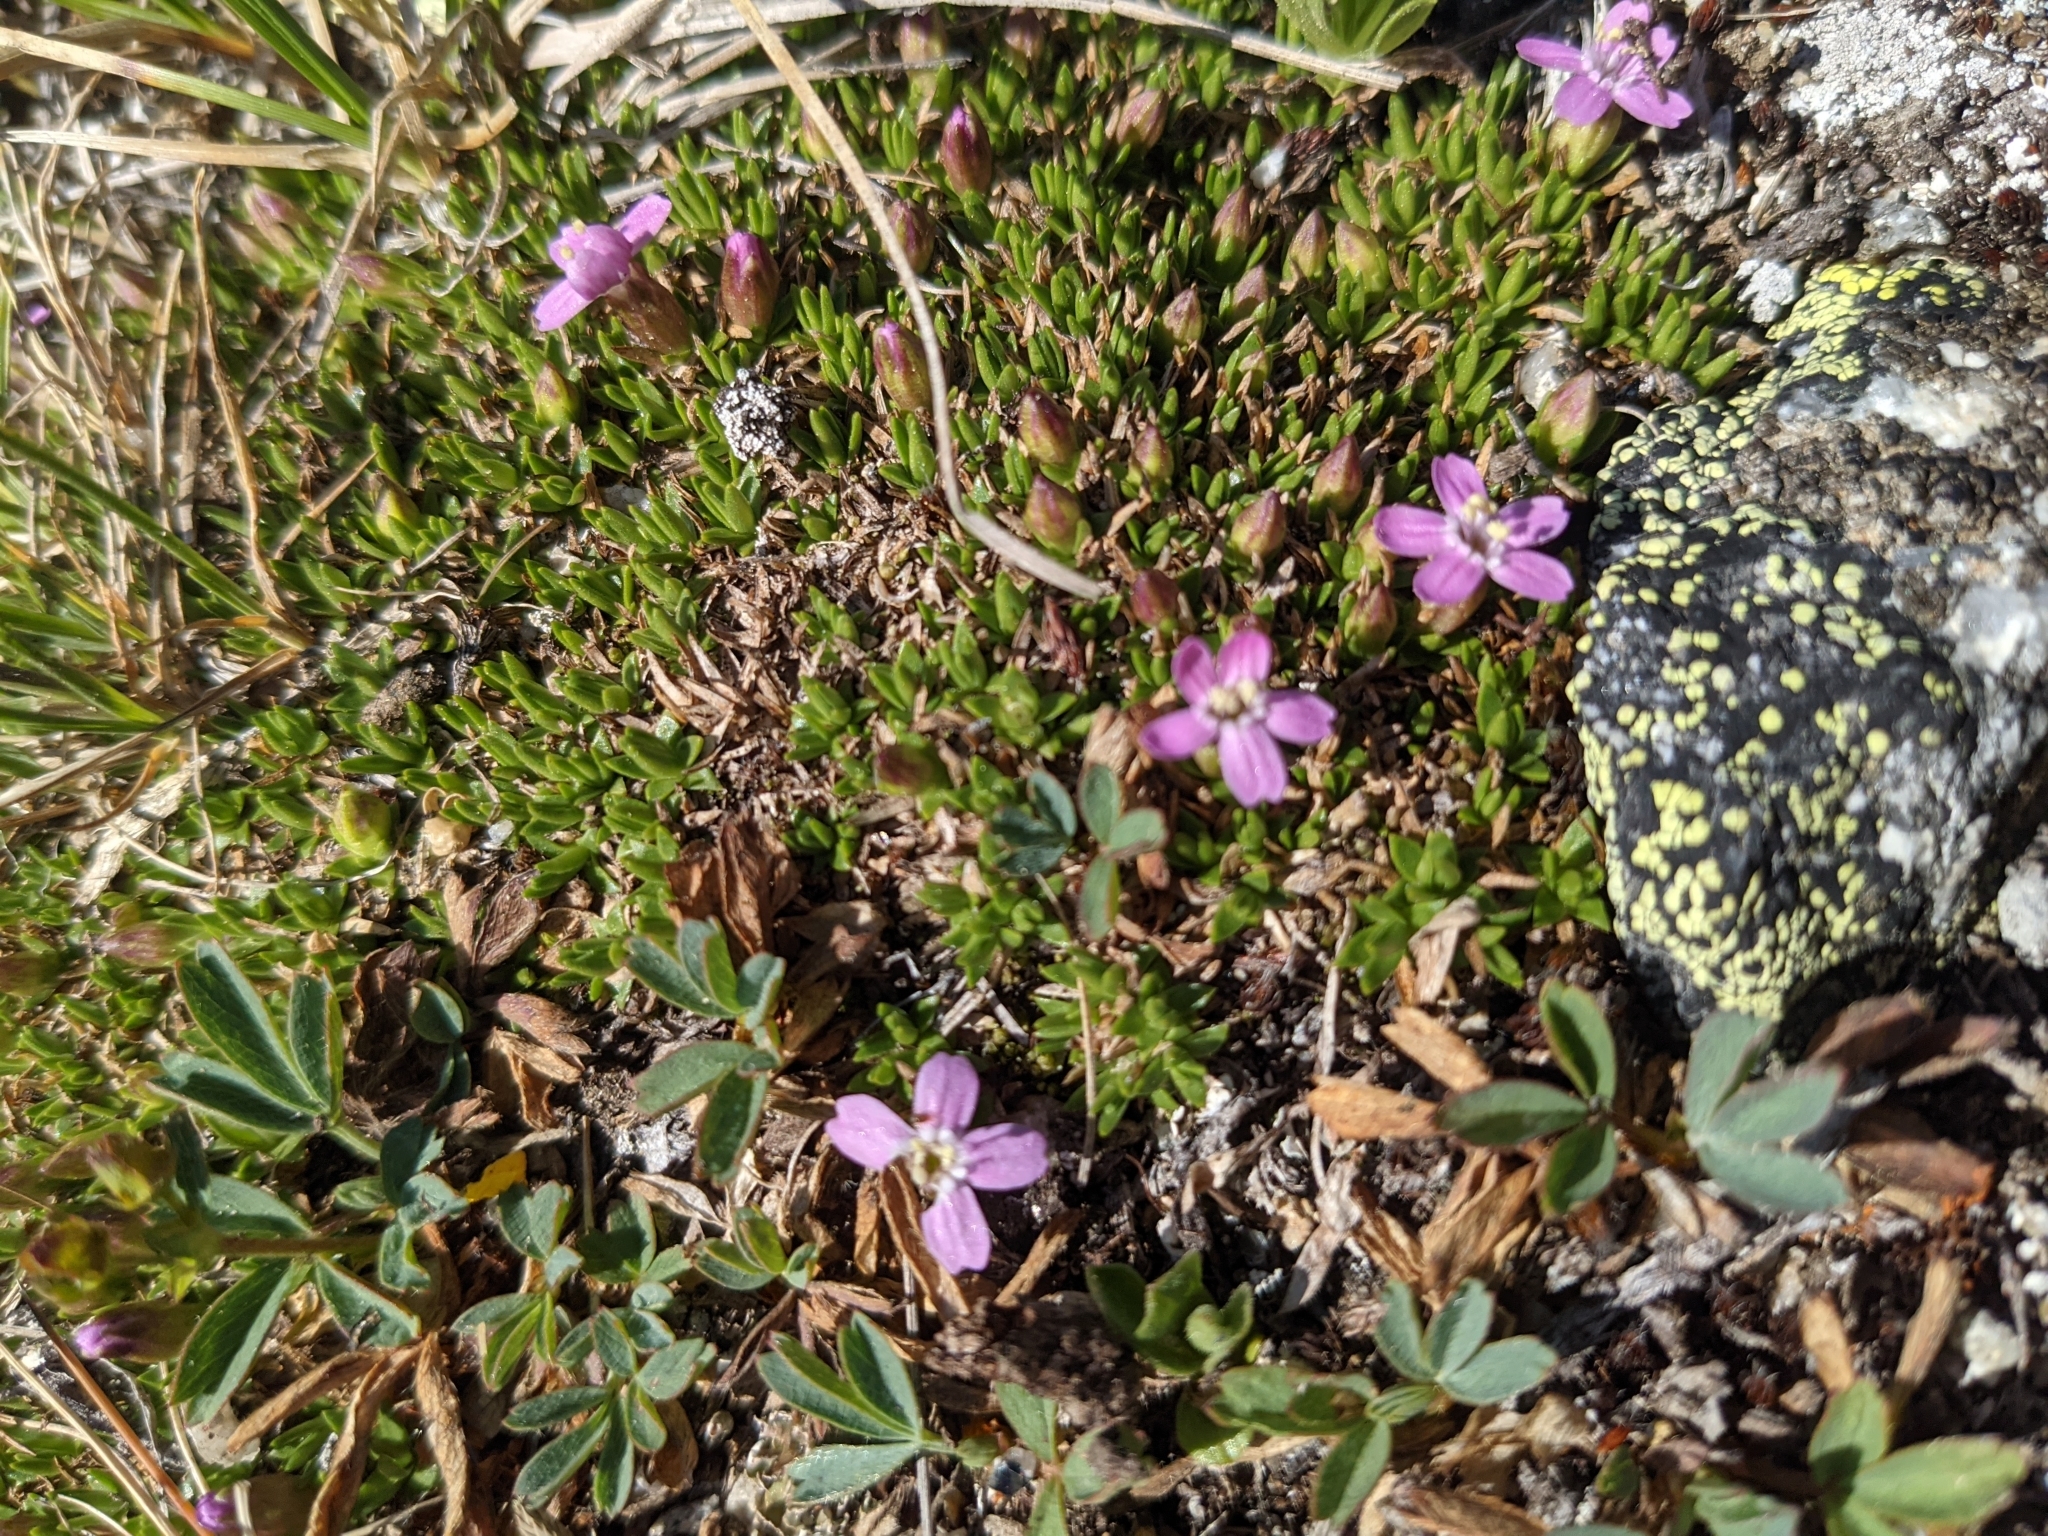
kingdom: Plantae
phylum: Tracheophyta
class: Magnoliopsida
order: Caryophyllales
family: Caryophyllaceae
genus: Silene
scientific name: Silene acaulis
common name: Moss campion
